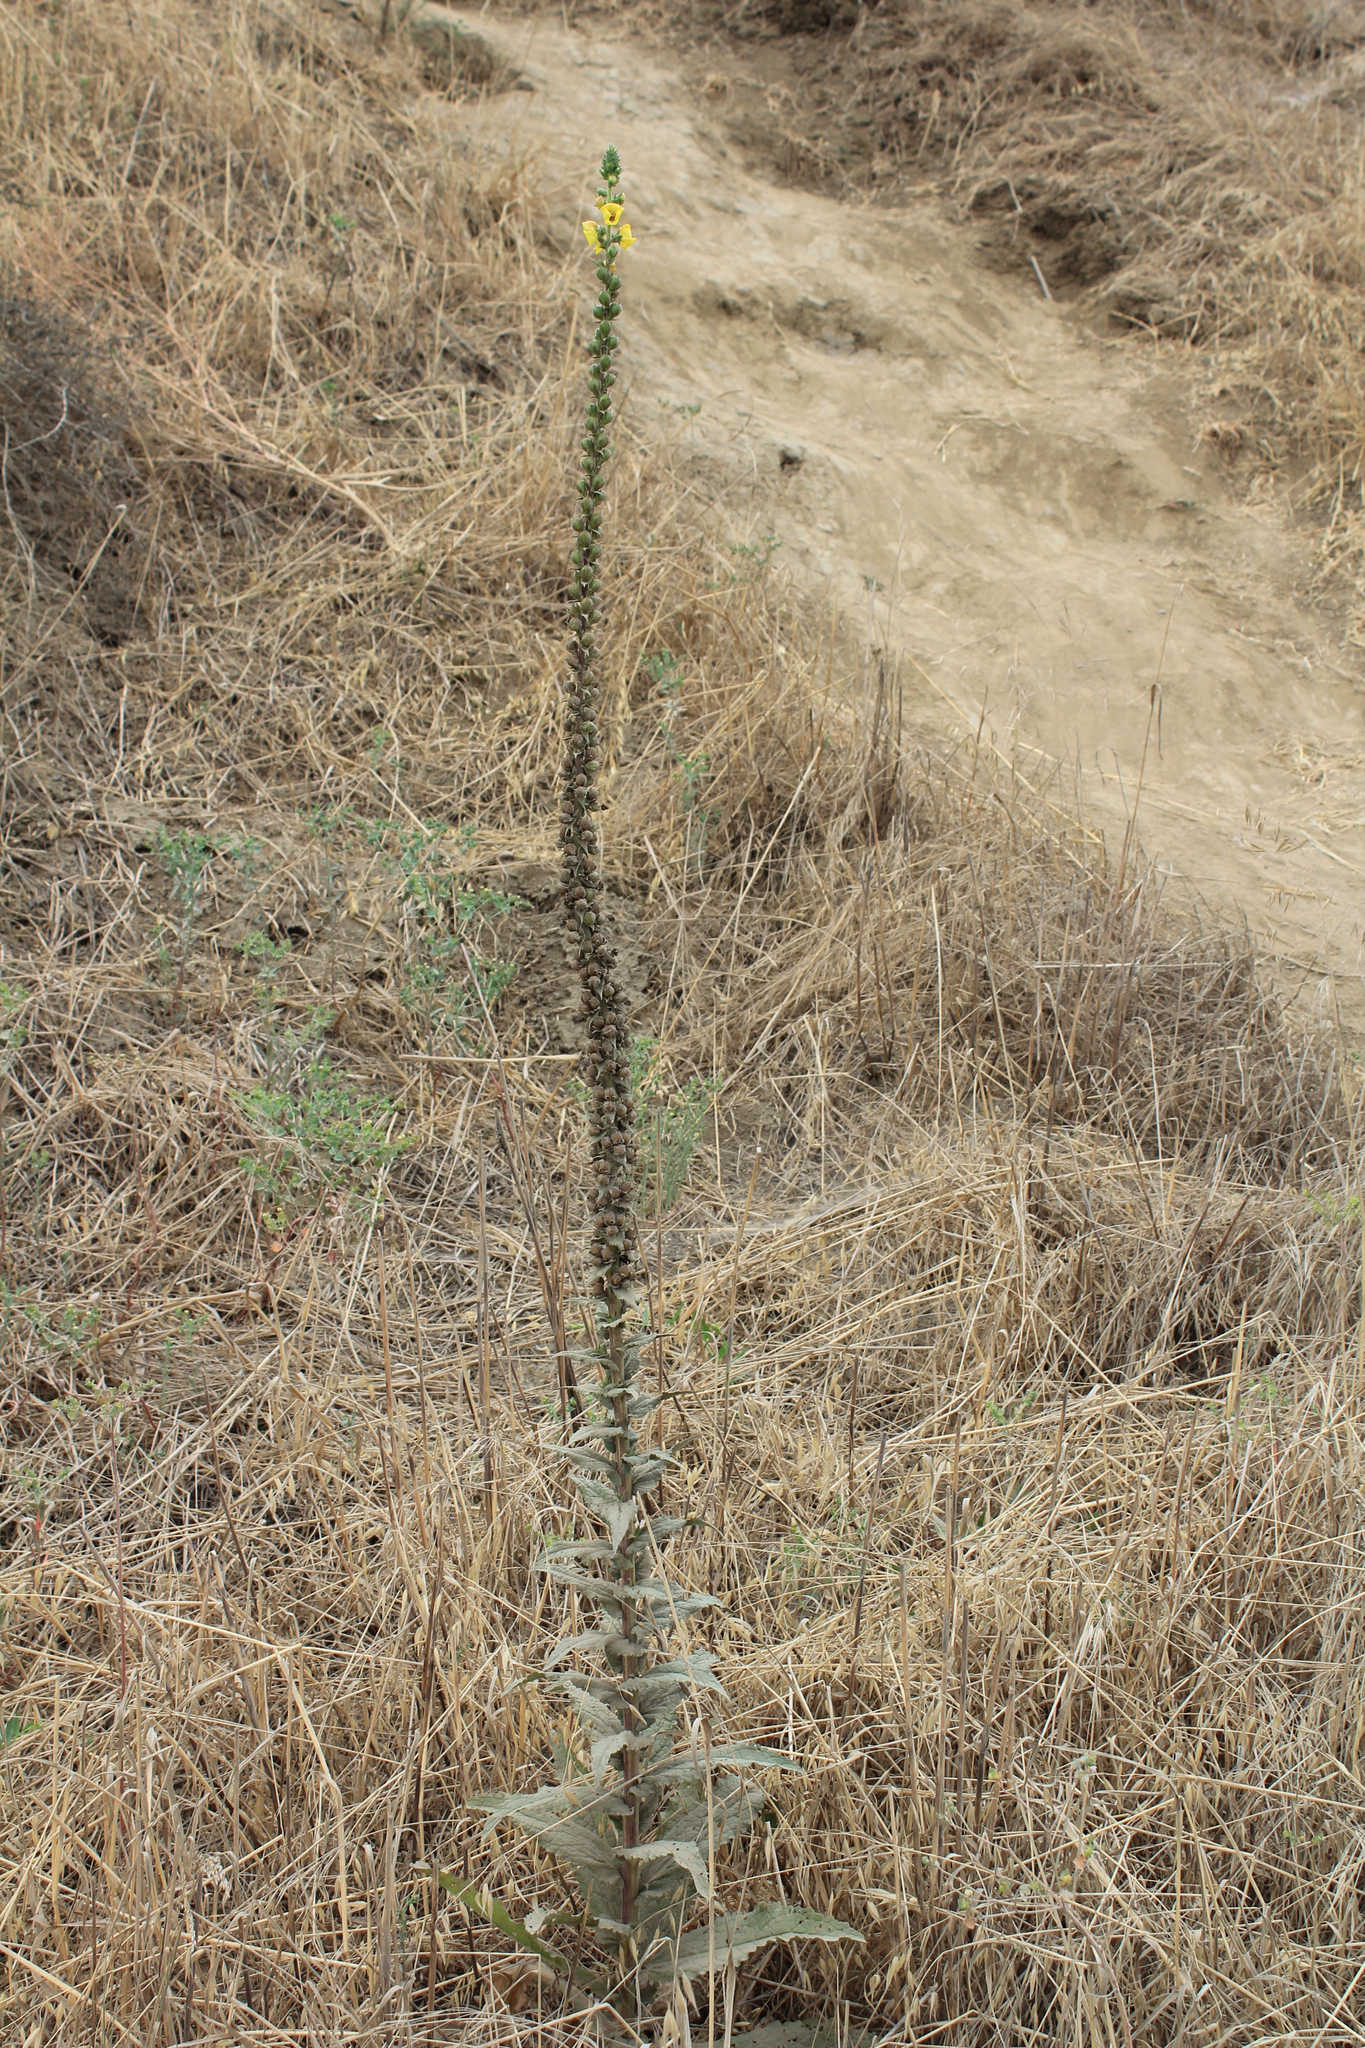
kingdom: Plantae
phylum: Tracheophyta
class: Magnoliopsida
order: Lamiales
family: Scrophulariaceae
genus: Verbascum
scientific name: Verbascum virgatum
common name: Twiggy mullein
